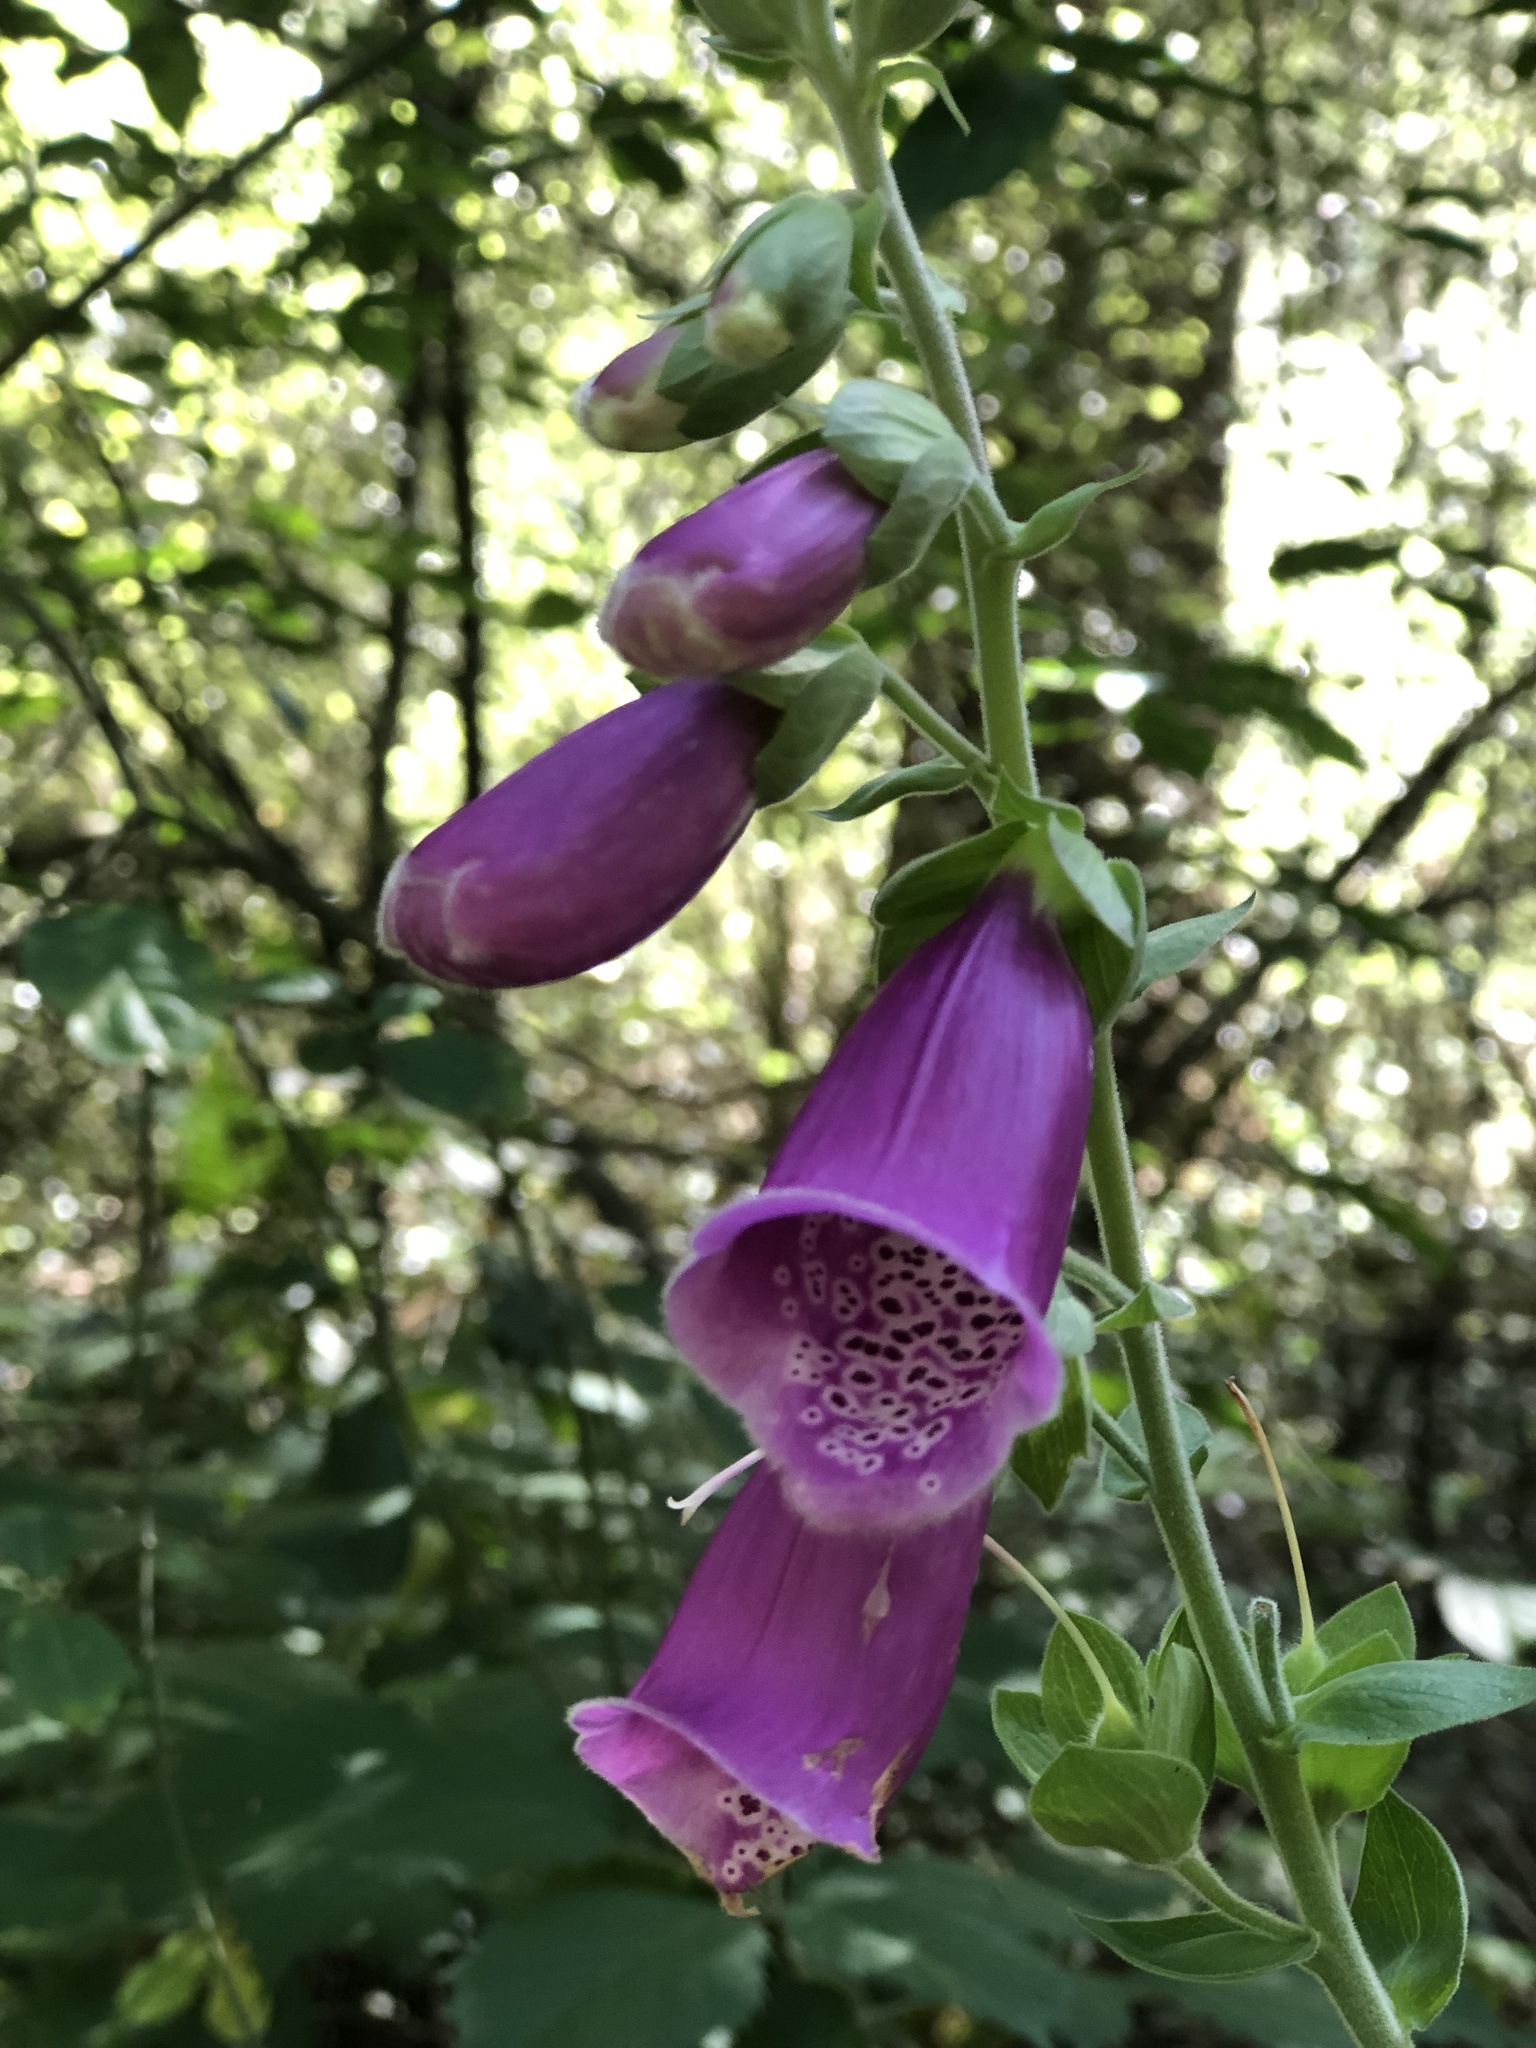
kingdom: Plantae
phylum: Tracheophyta
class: Magnoliopsida
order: Lamiales
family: Plantaginaceae
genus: Digitalis
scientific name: Digitalis purpurea
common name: Foxglove
